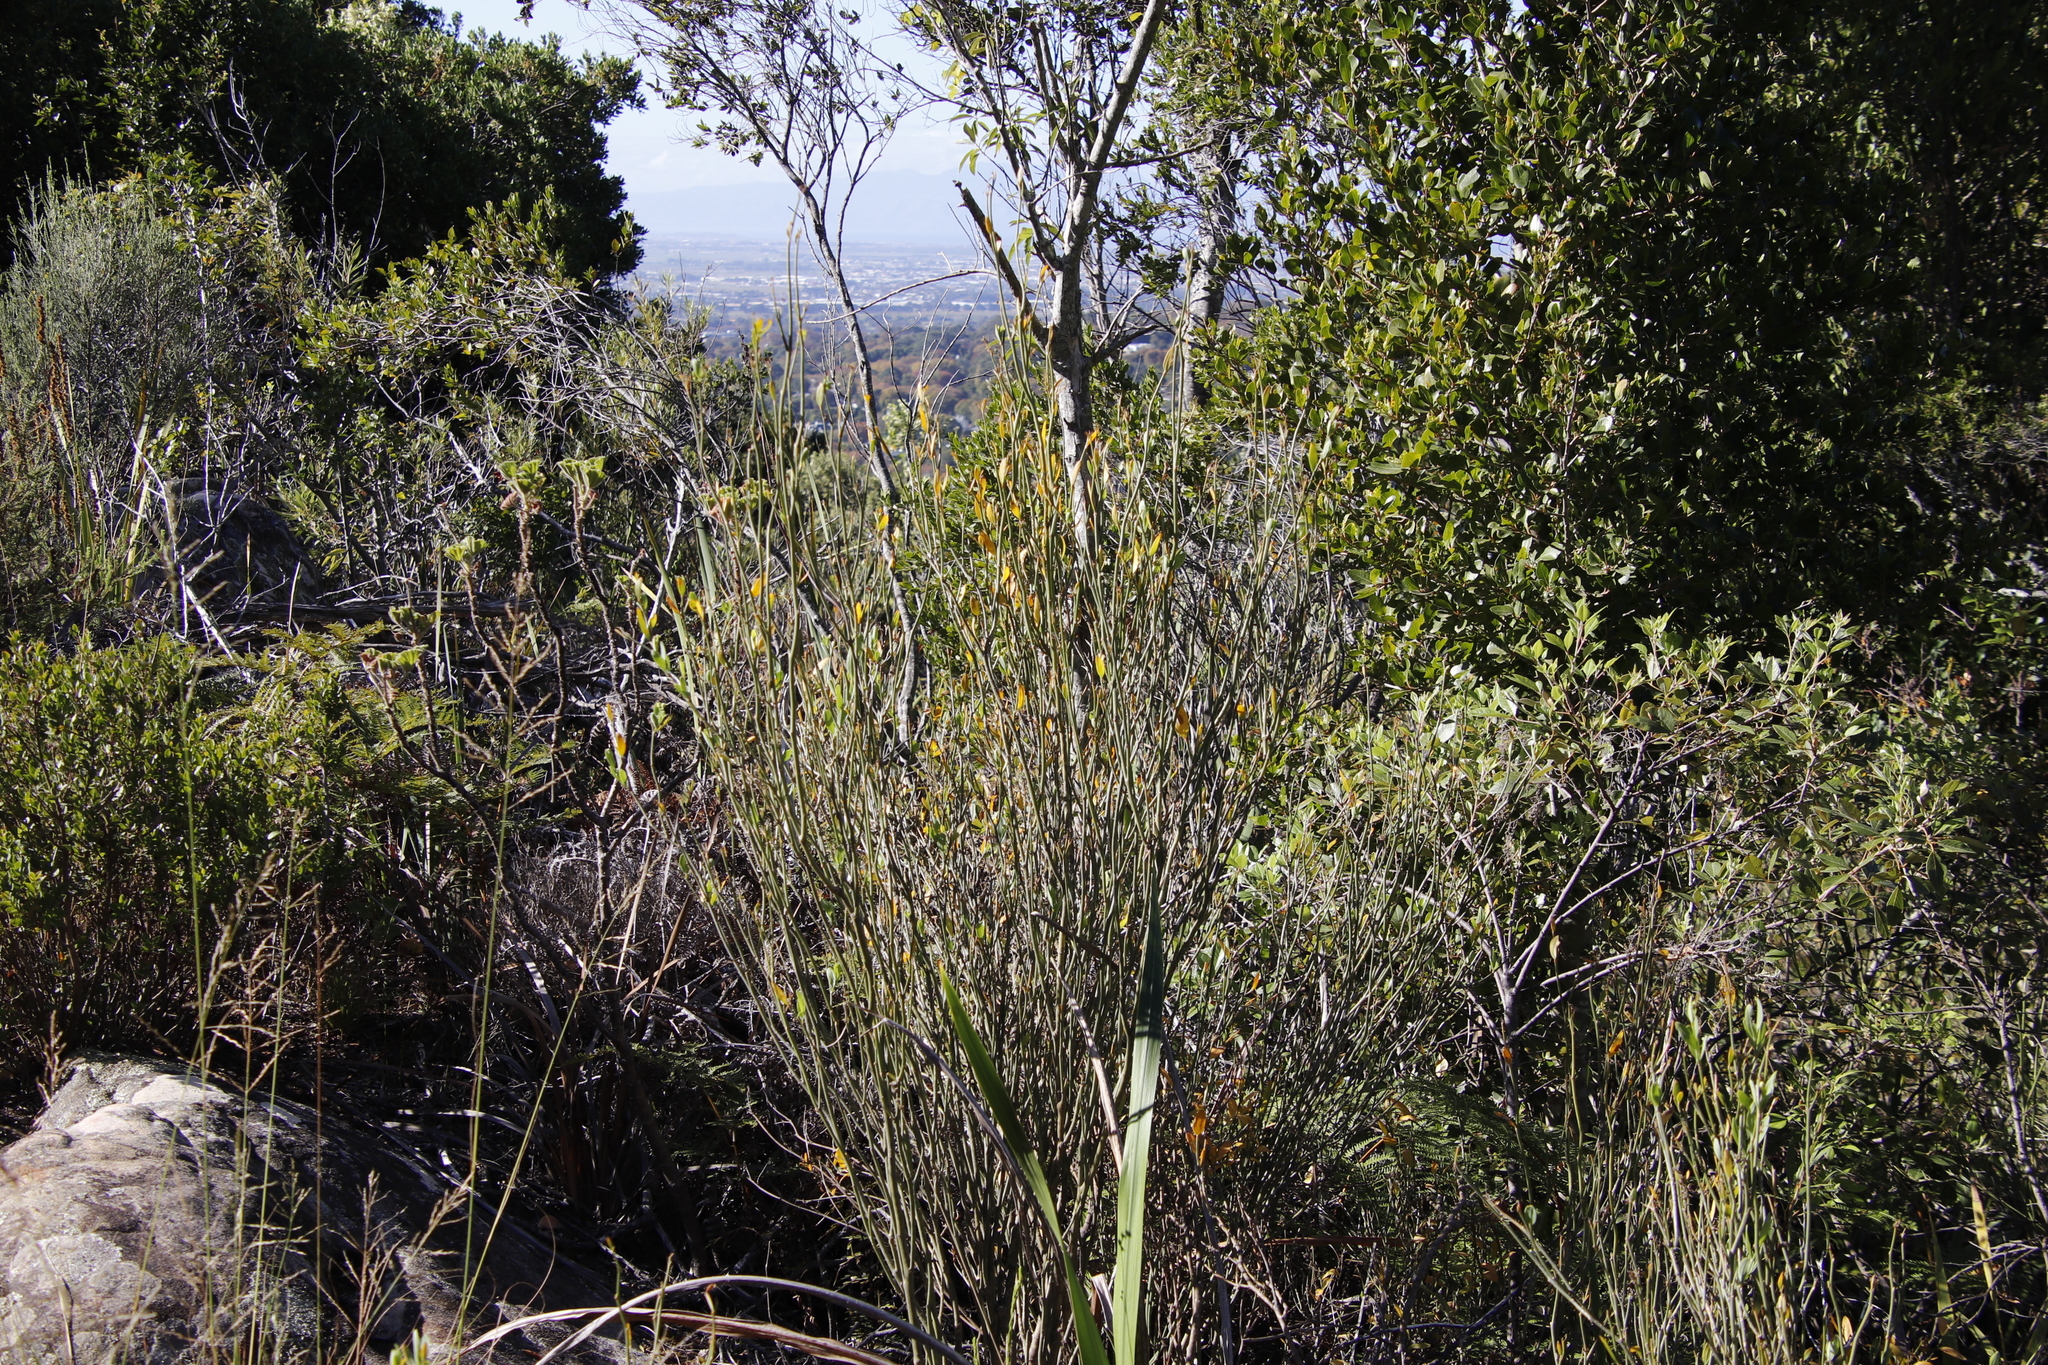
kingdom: Plantae
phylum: Tracheophyta
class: Magnoliopsida
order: Solanales
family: Montiniaceae
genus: Montinia
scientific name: Montinia caryophyllacea
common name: Wild clove-bush
